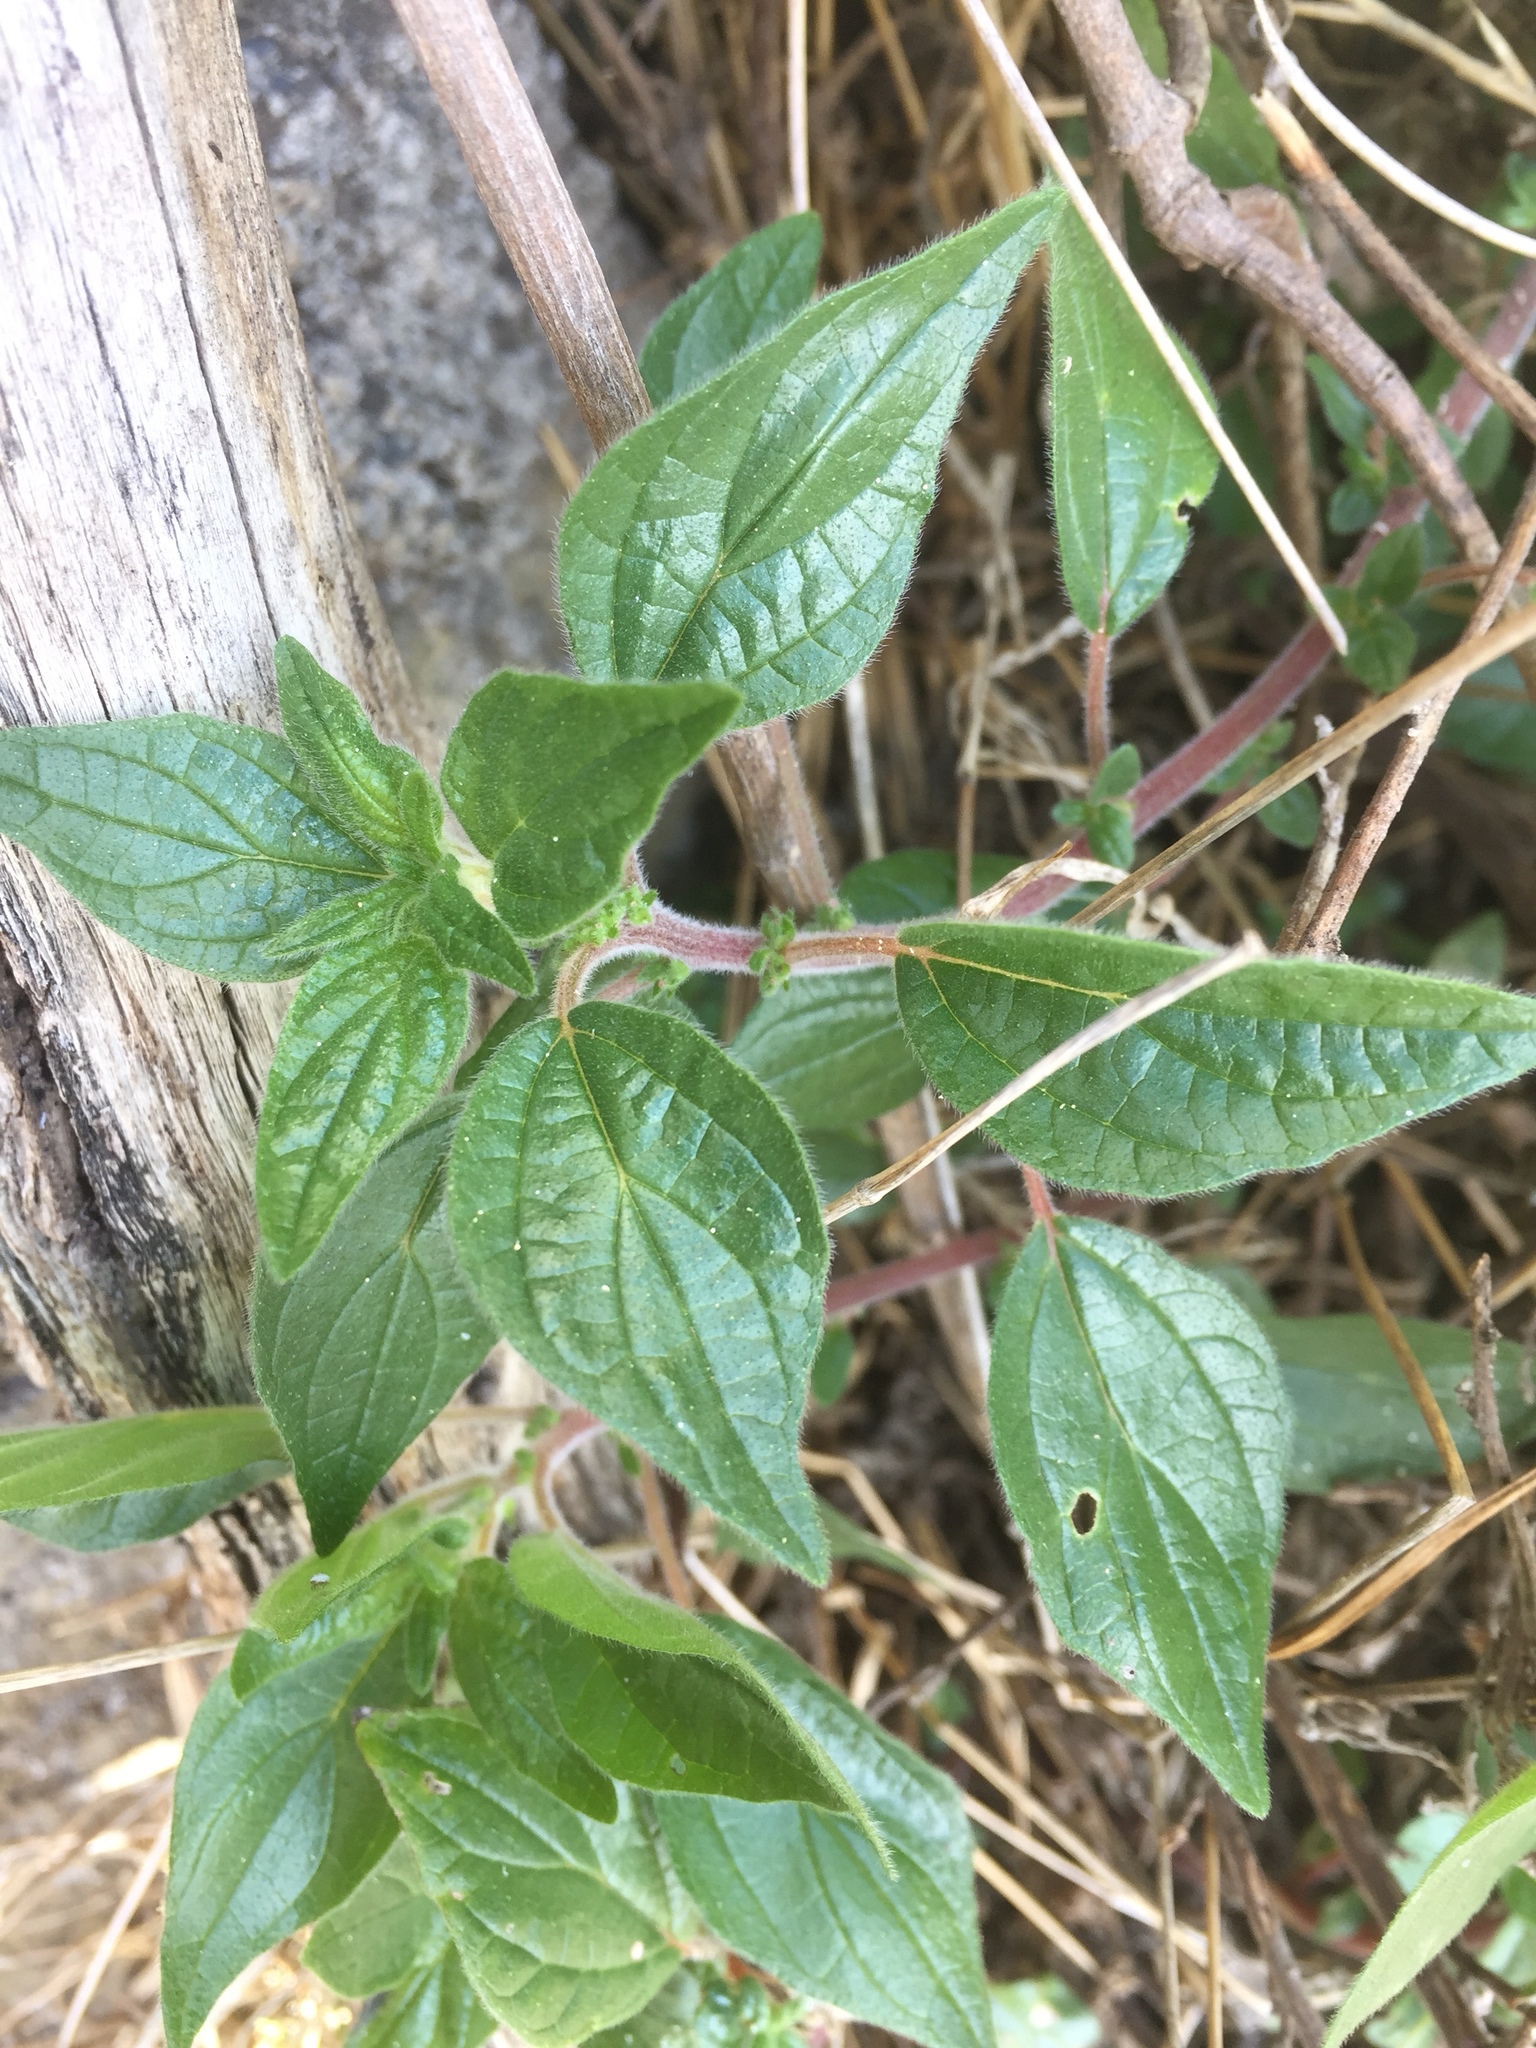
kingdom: Plantae
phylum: Tracheophyta
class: Magnoliopsida
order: Rosales
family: Urticaceae
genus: Parietaria
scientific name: Parietaria judaica
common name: Pellitory-of-the-wall
